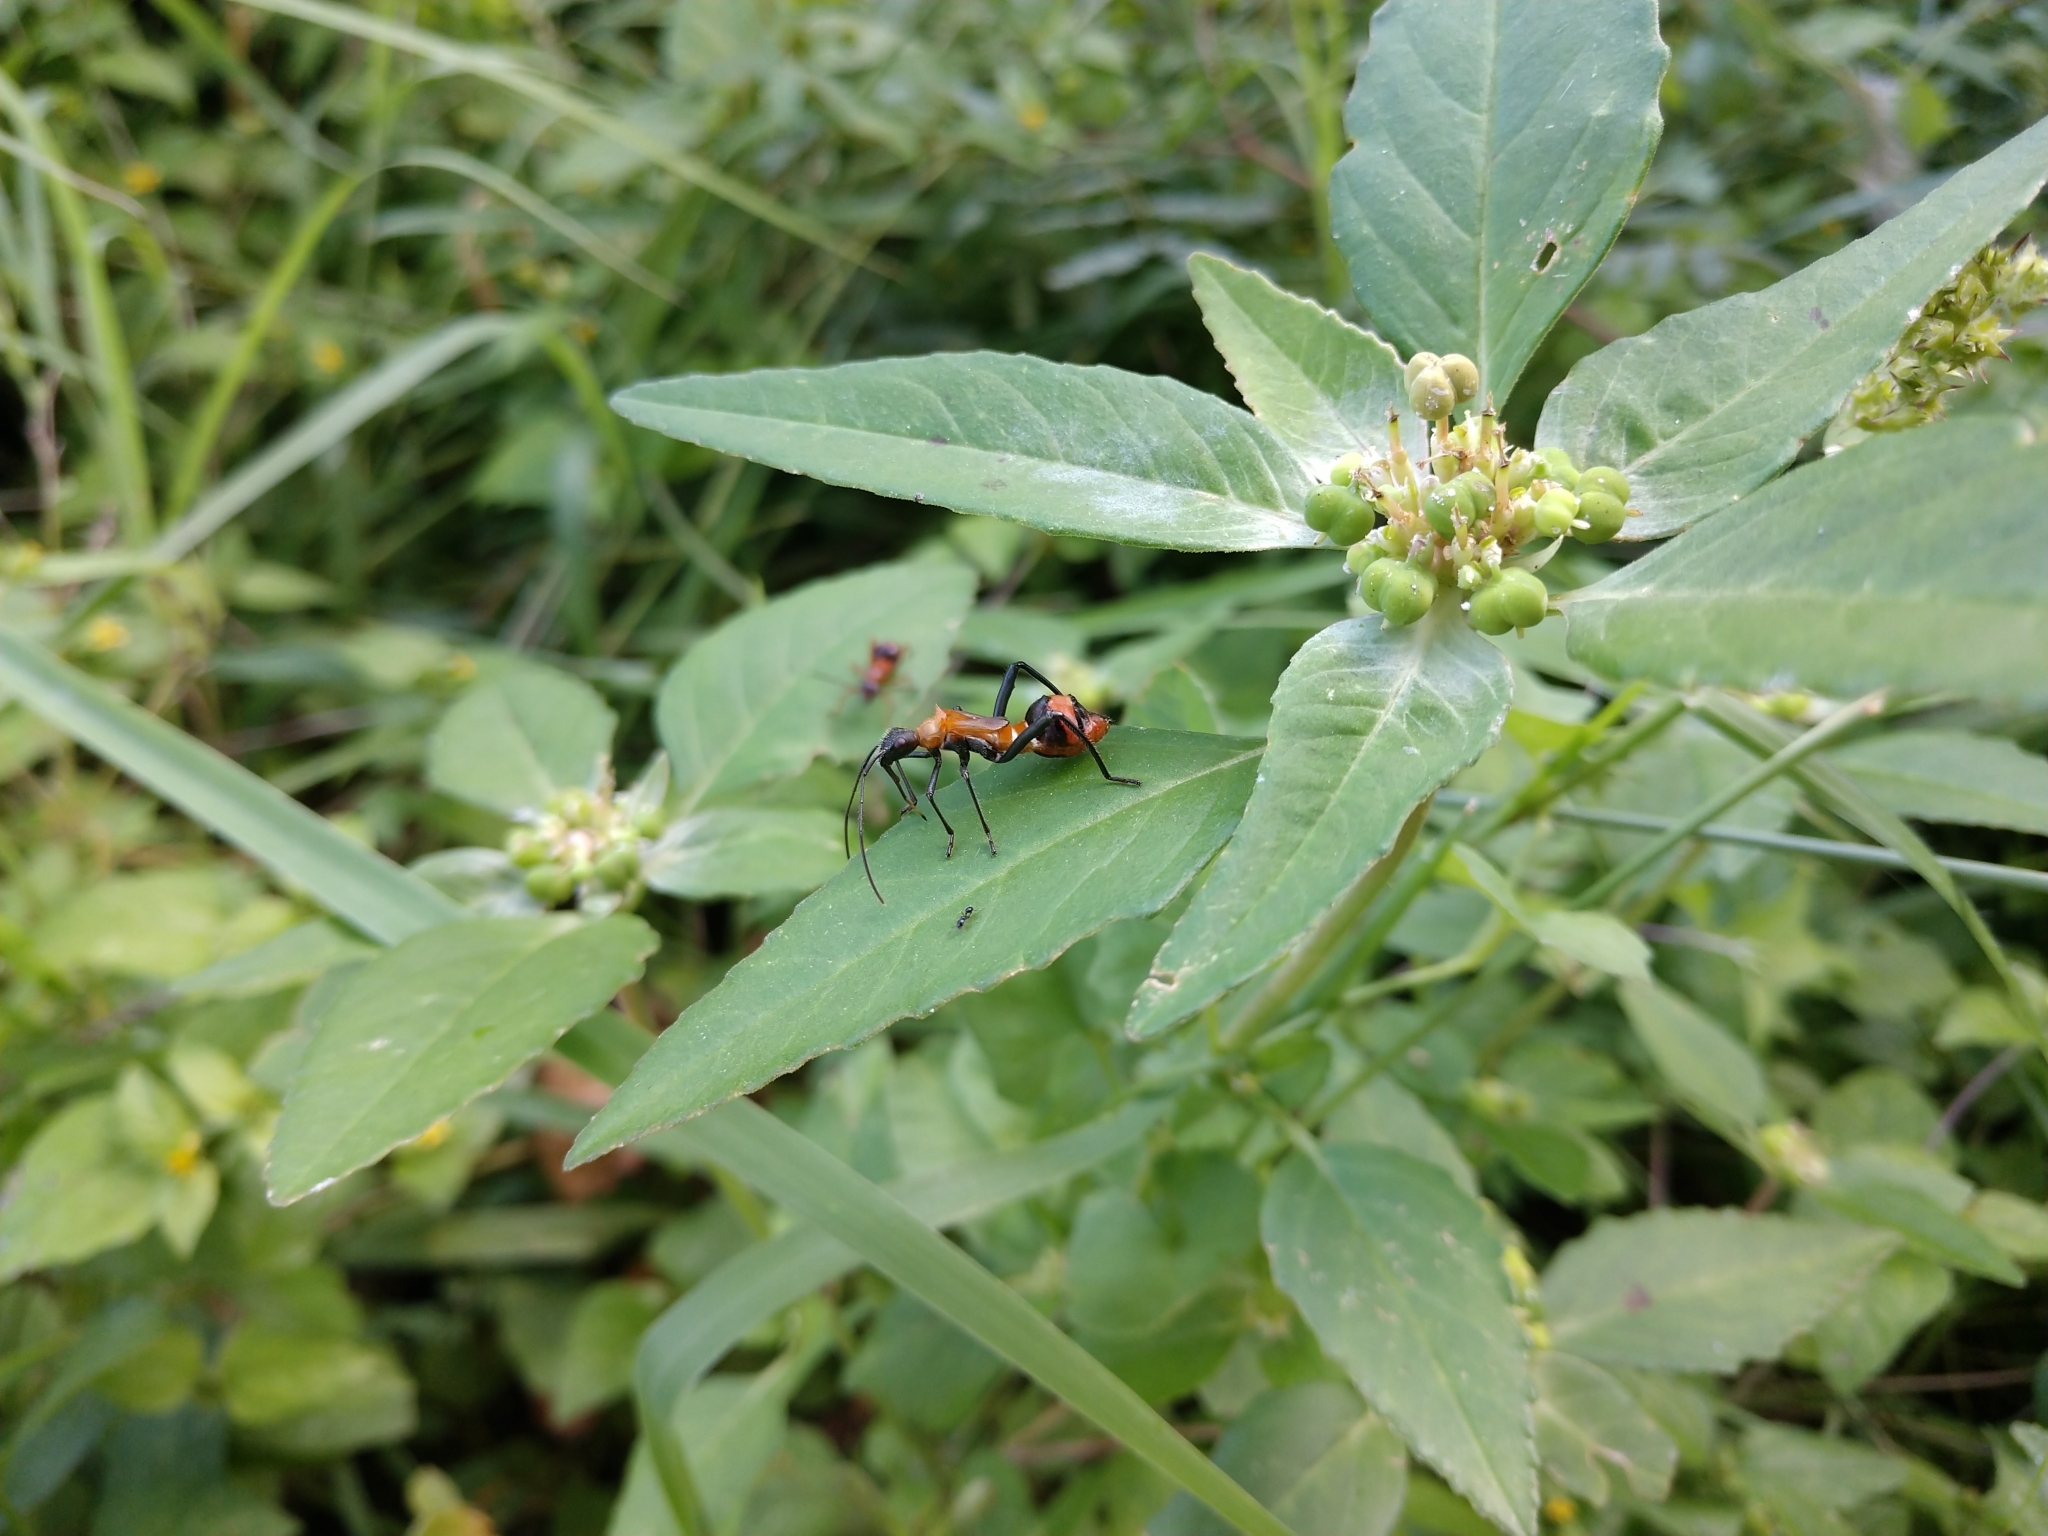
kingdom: Animalia
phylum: Arthropoda
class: Insecta
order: Hemiptera
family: Alydidae
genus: Hyalymenus
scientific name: Hyalymenus tarsatus
